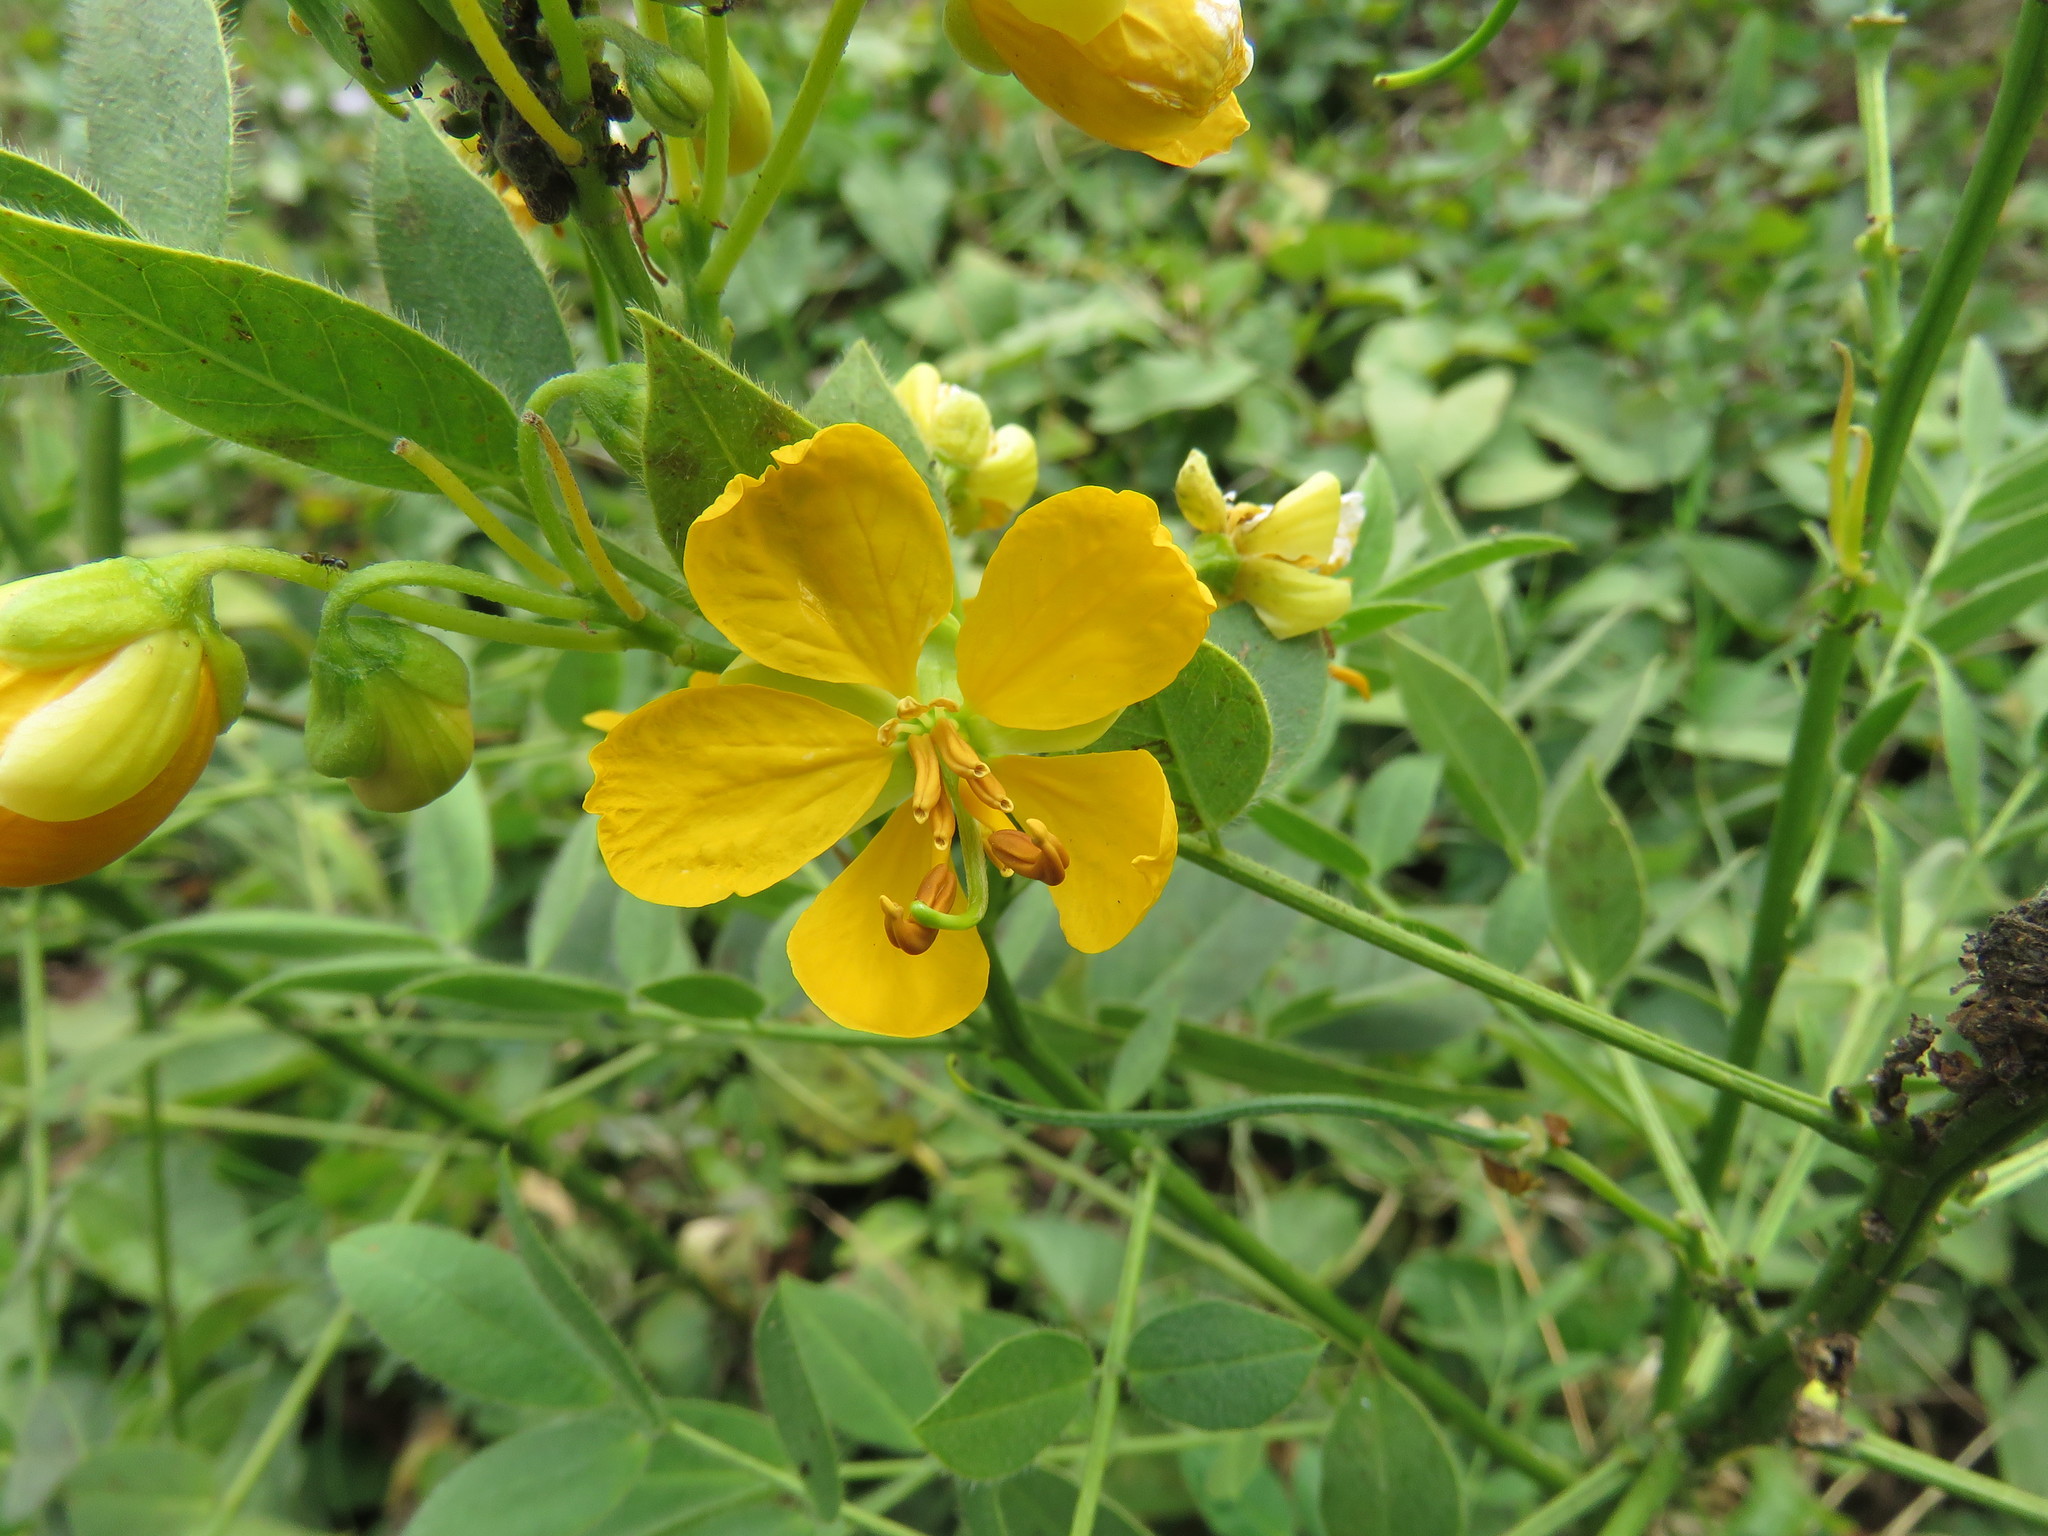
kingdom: Plantae
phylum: Tracheophyta
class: Magnoliopsida
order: Fabales
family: Fabaceae
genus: Senna
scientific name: Senna hirsuta
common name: Woolly senna
